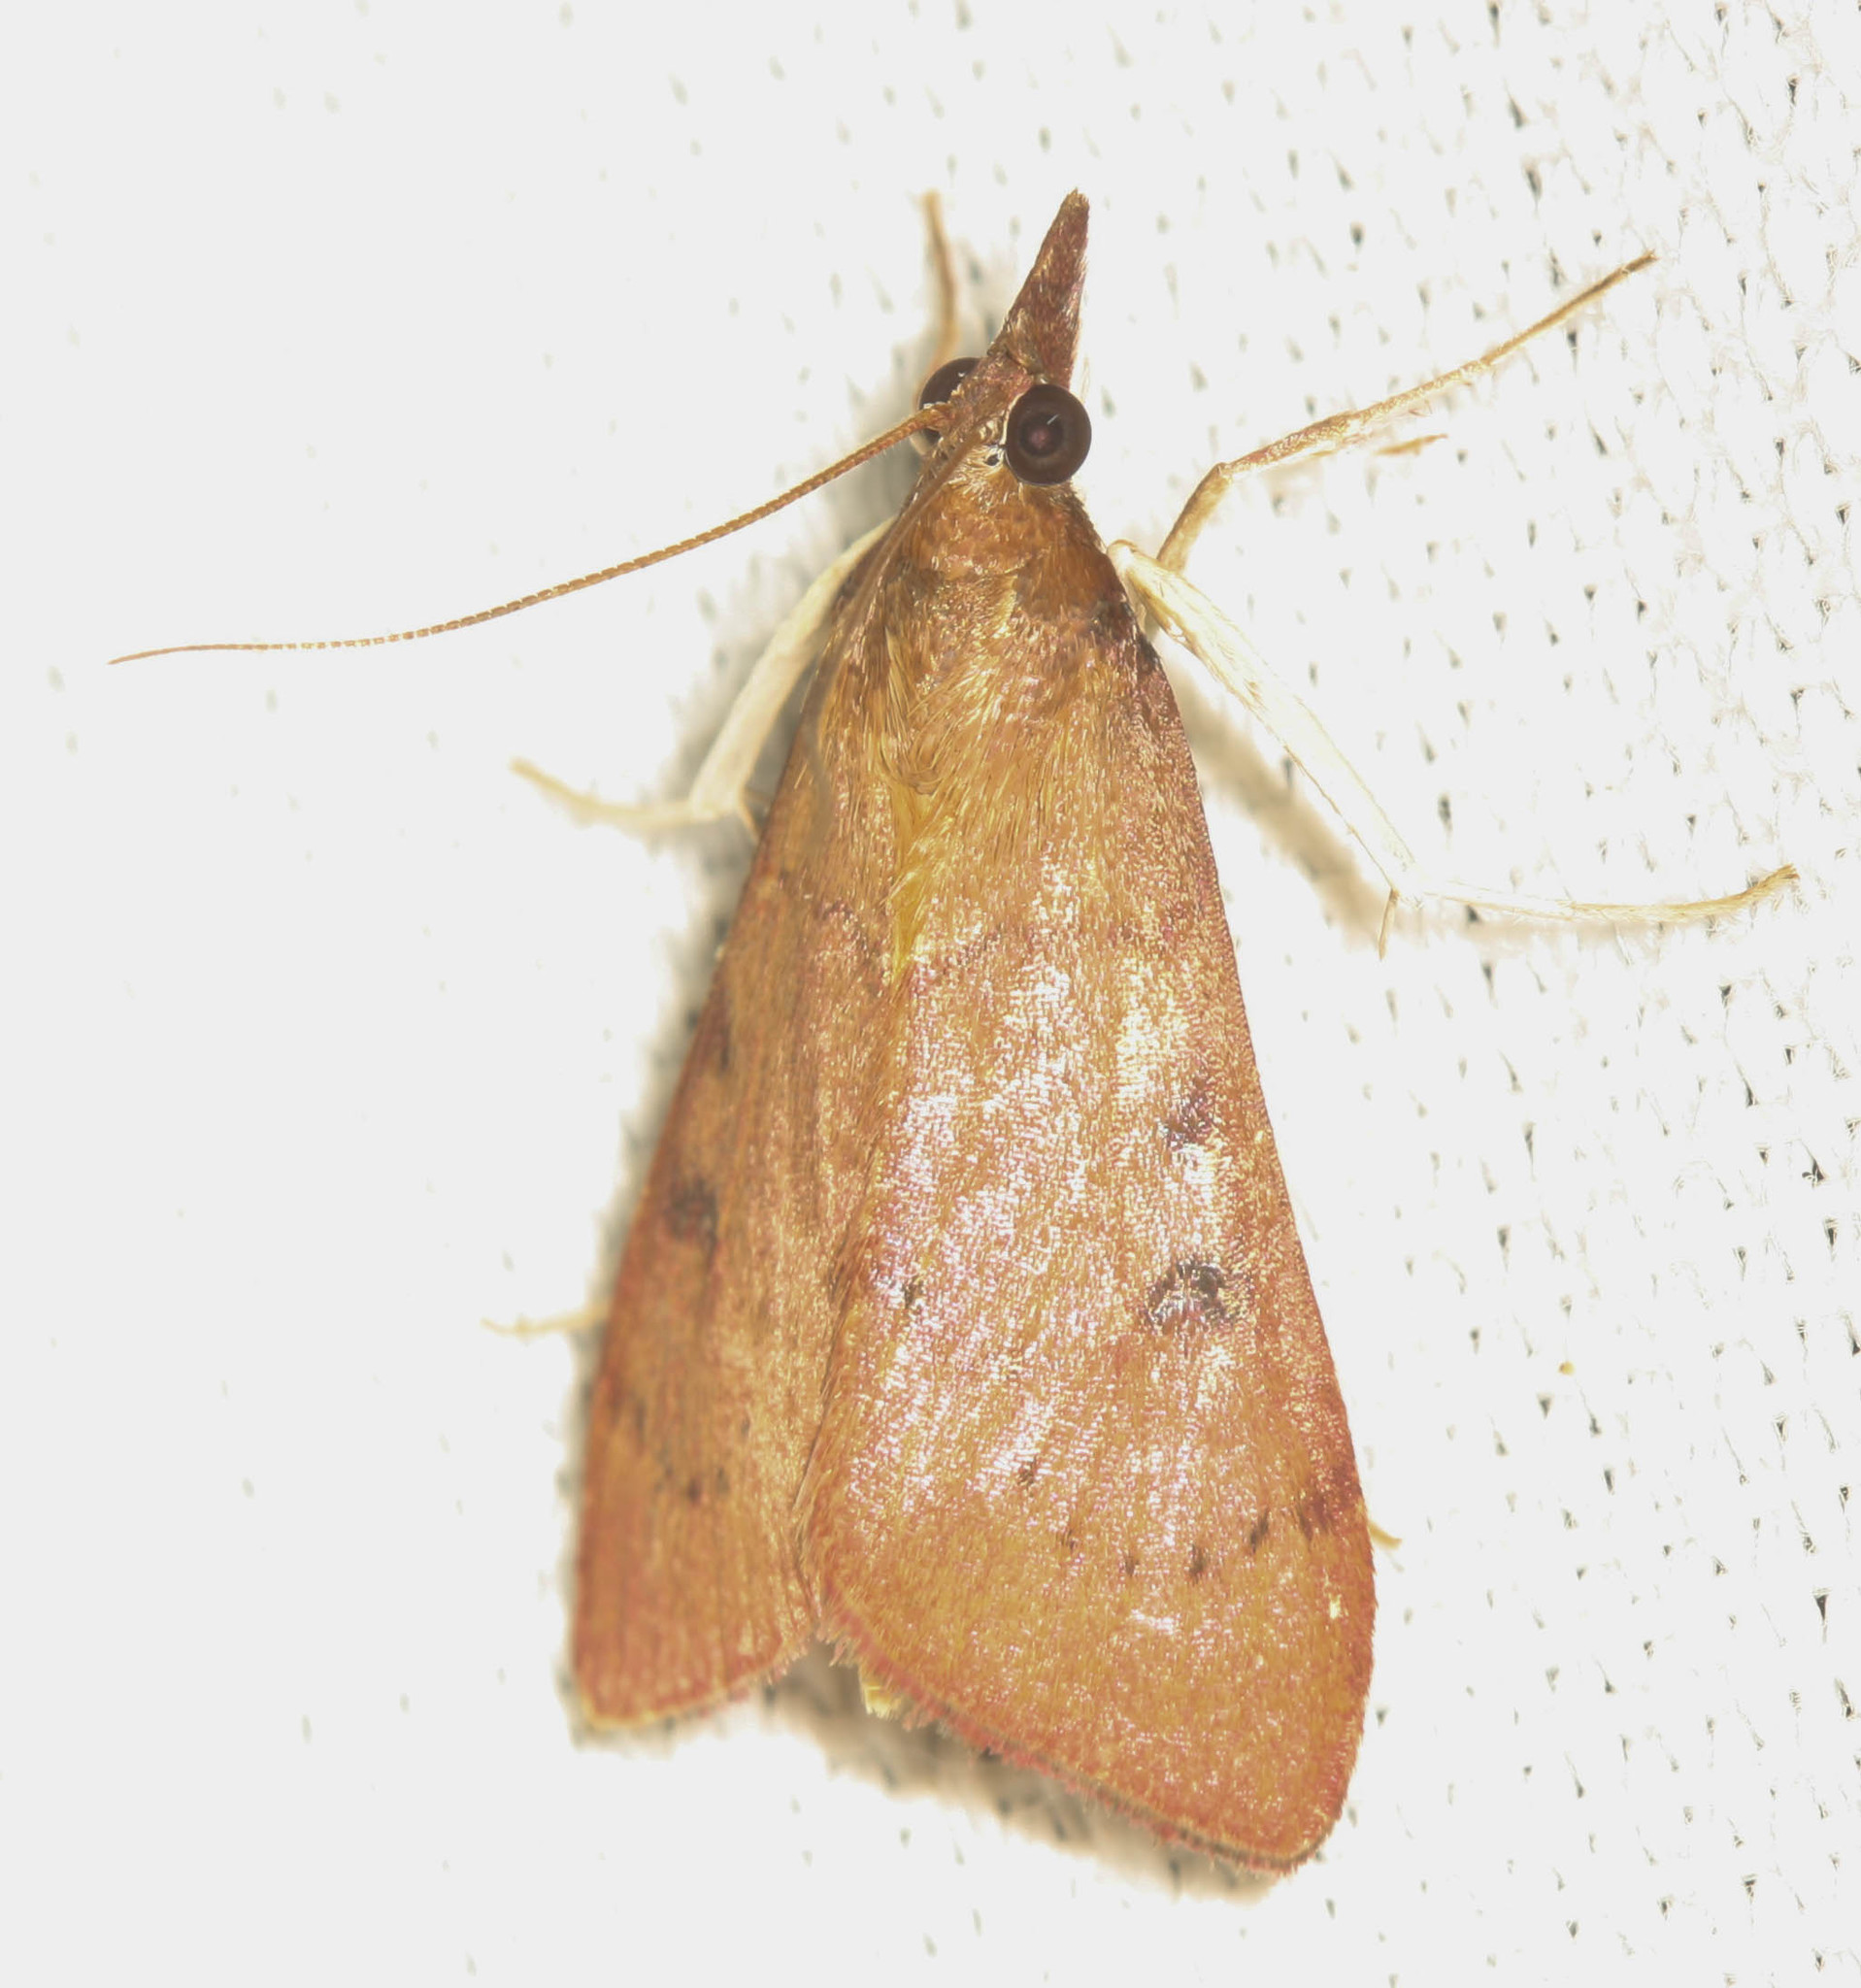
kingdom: Animalia
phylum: Arthropoda
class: Insecta
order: Lepidoptera
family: Crambidae
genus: Uresiphita
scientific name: Uresiphita reversalis
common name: Genista broom moth
